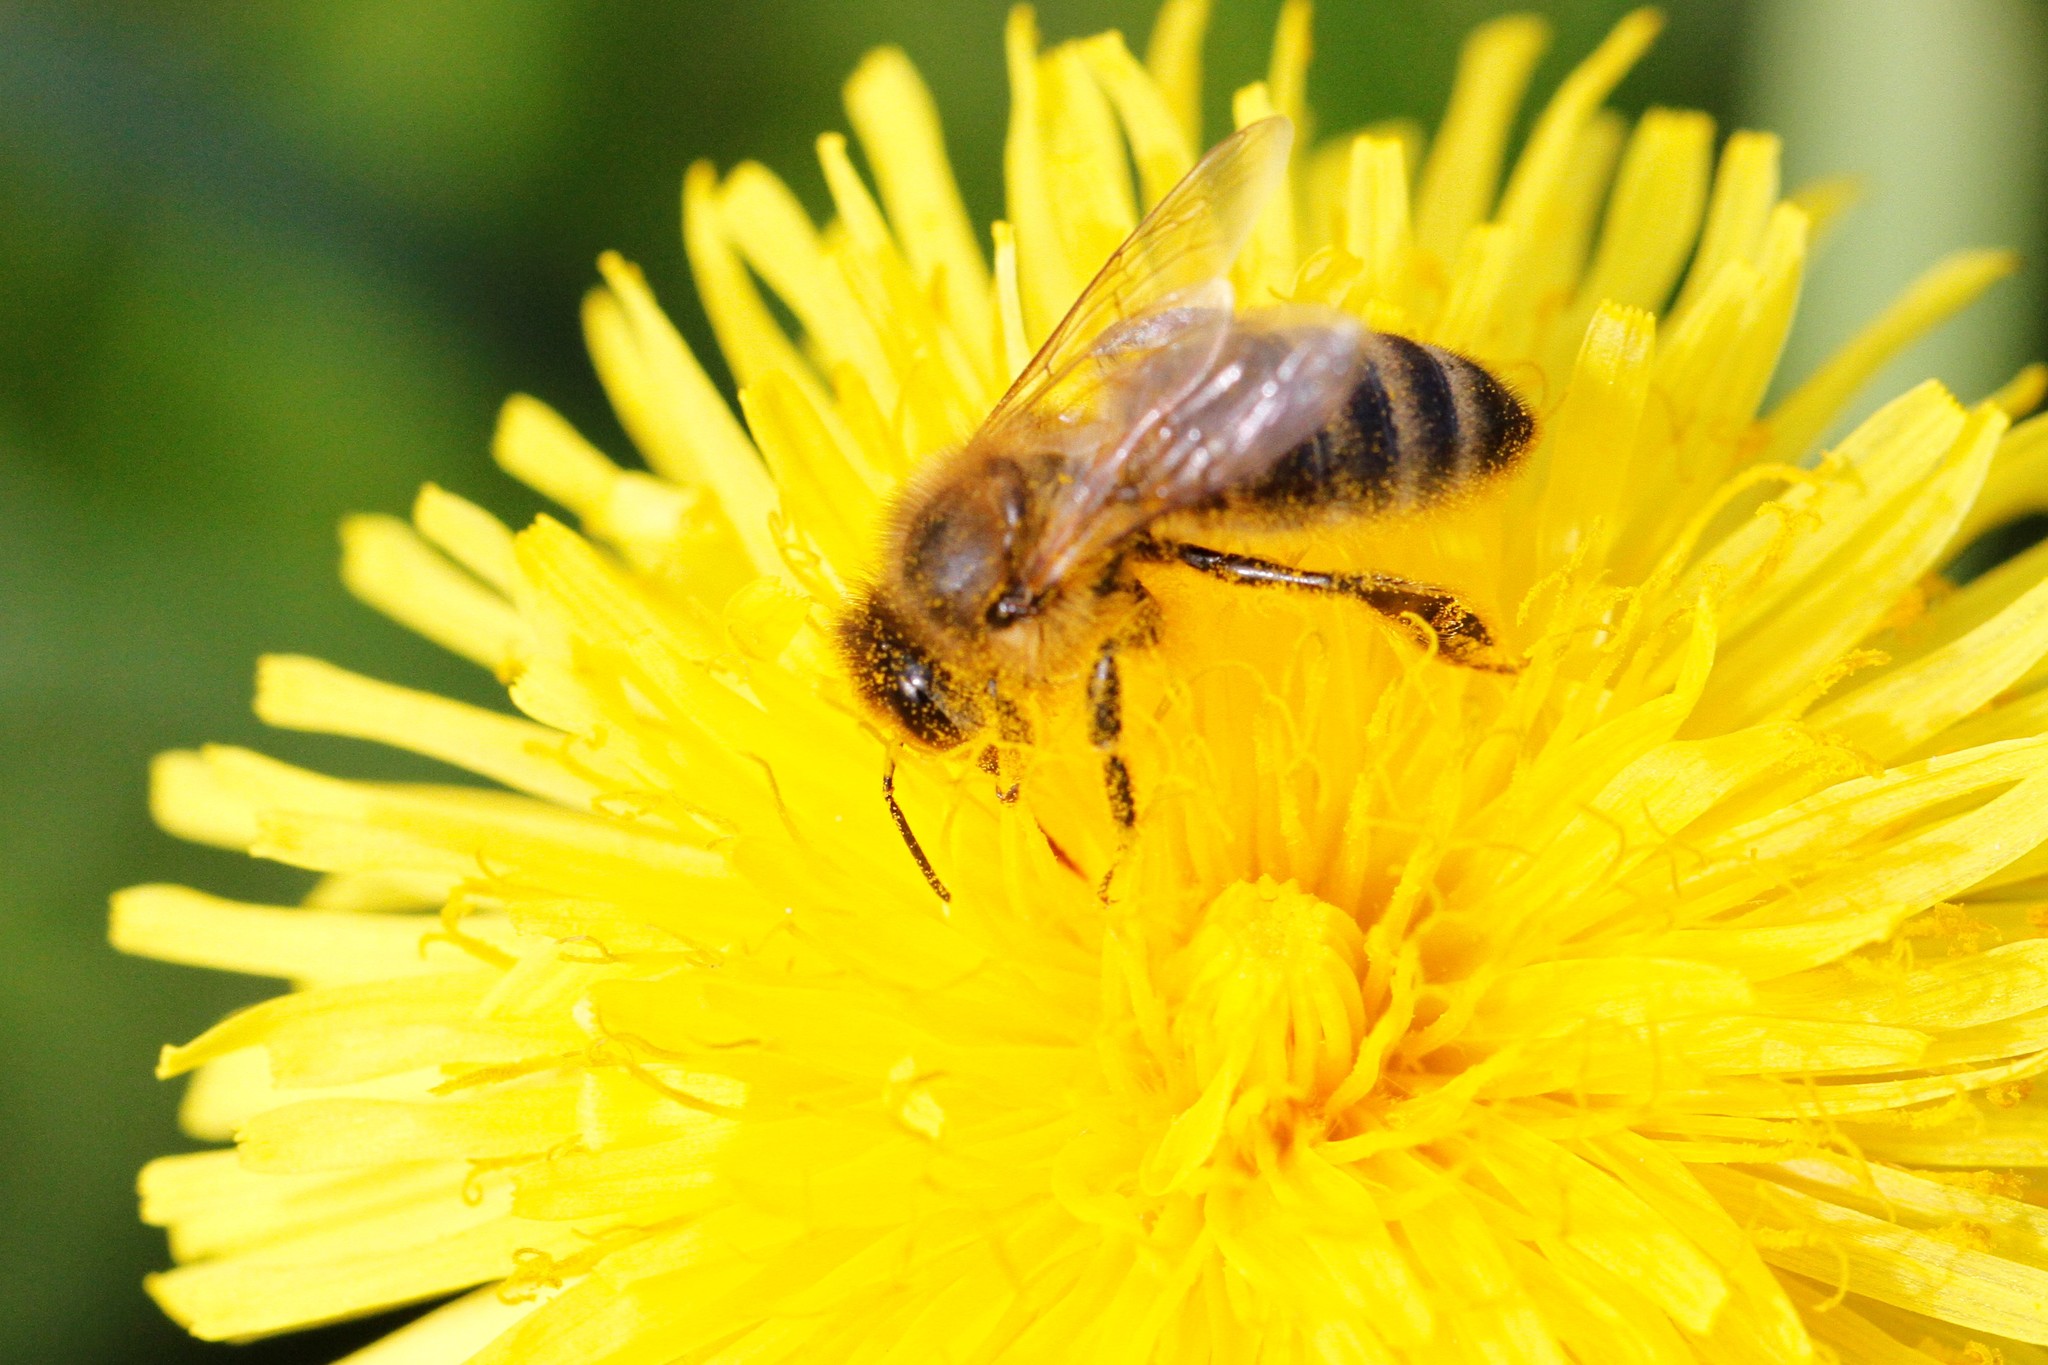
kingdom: Animalia
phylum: Arthropoda
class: Insecta
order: Hymenoptera
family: Apidae
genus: Apis
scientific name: Apis mellifera
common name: Honey bee
